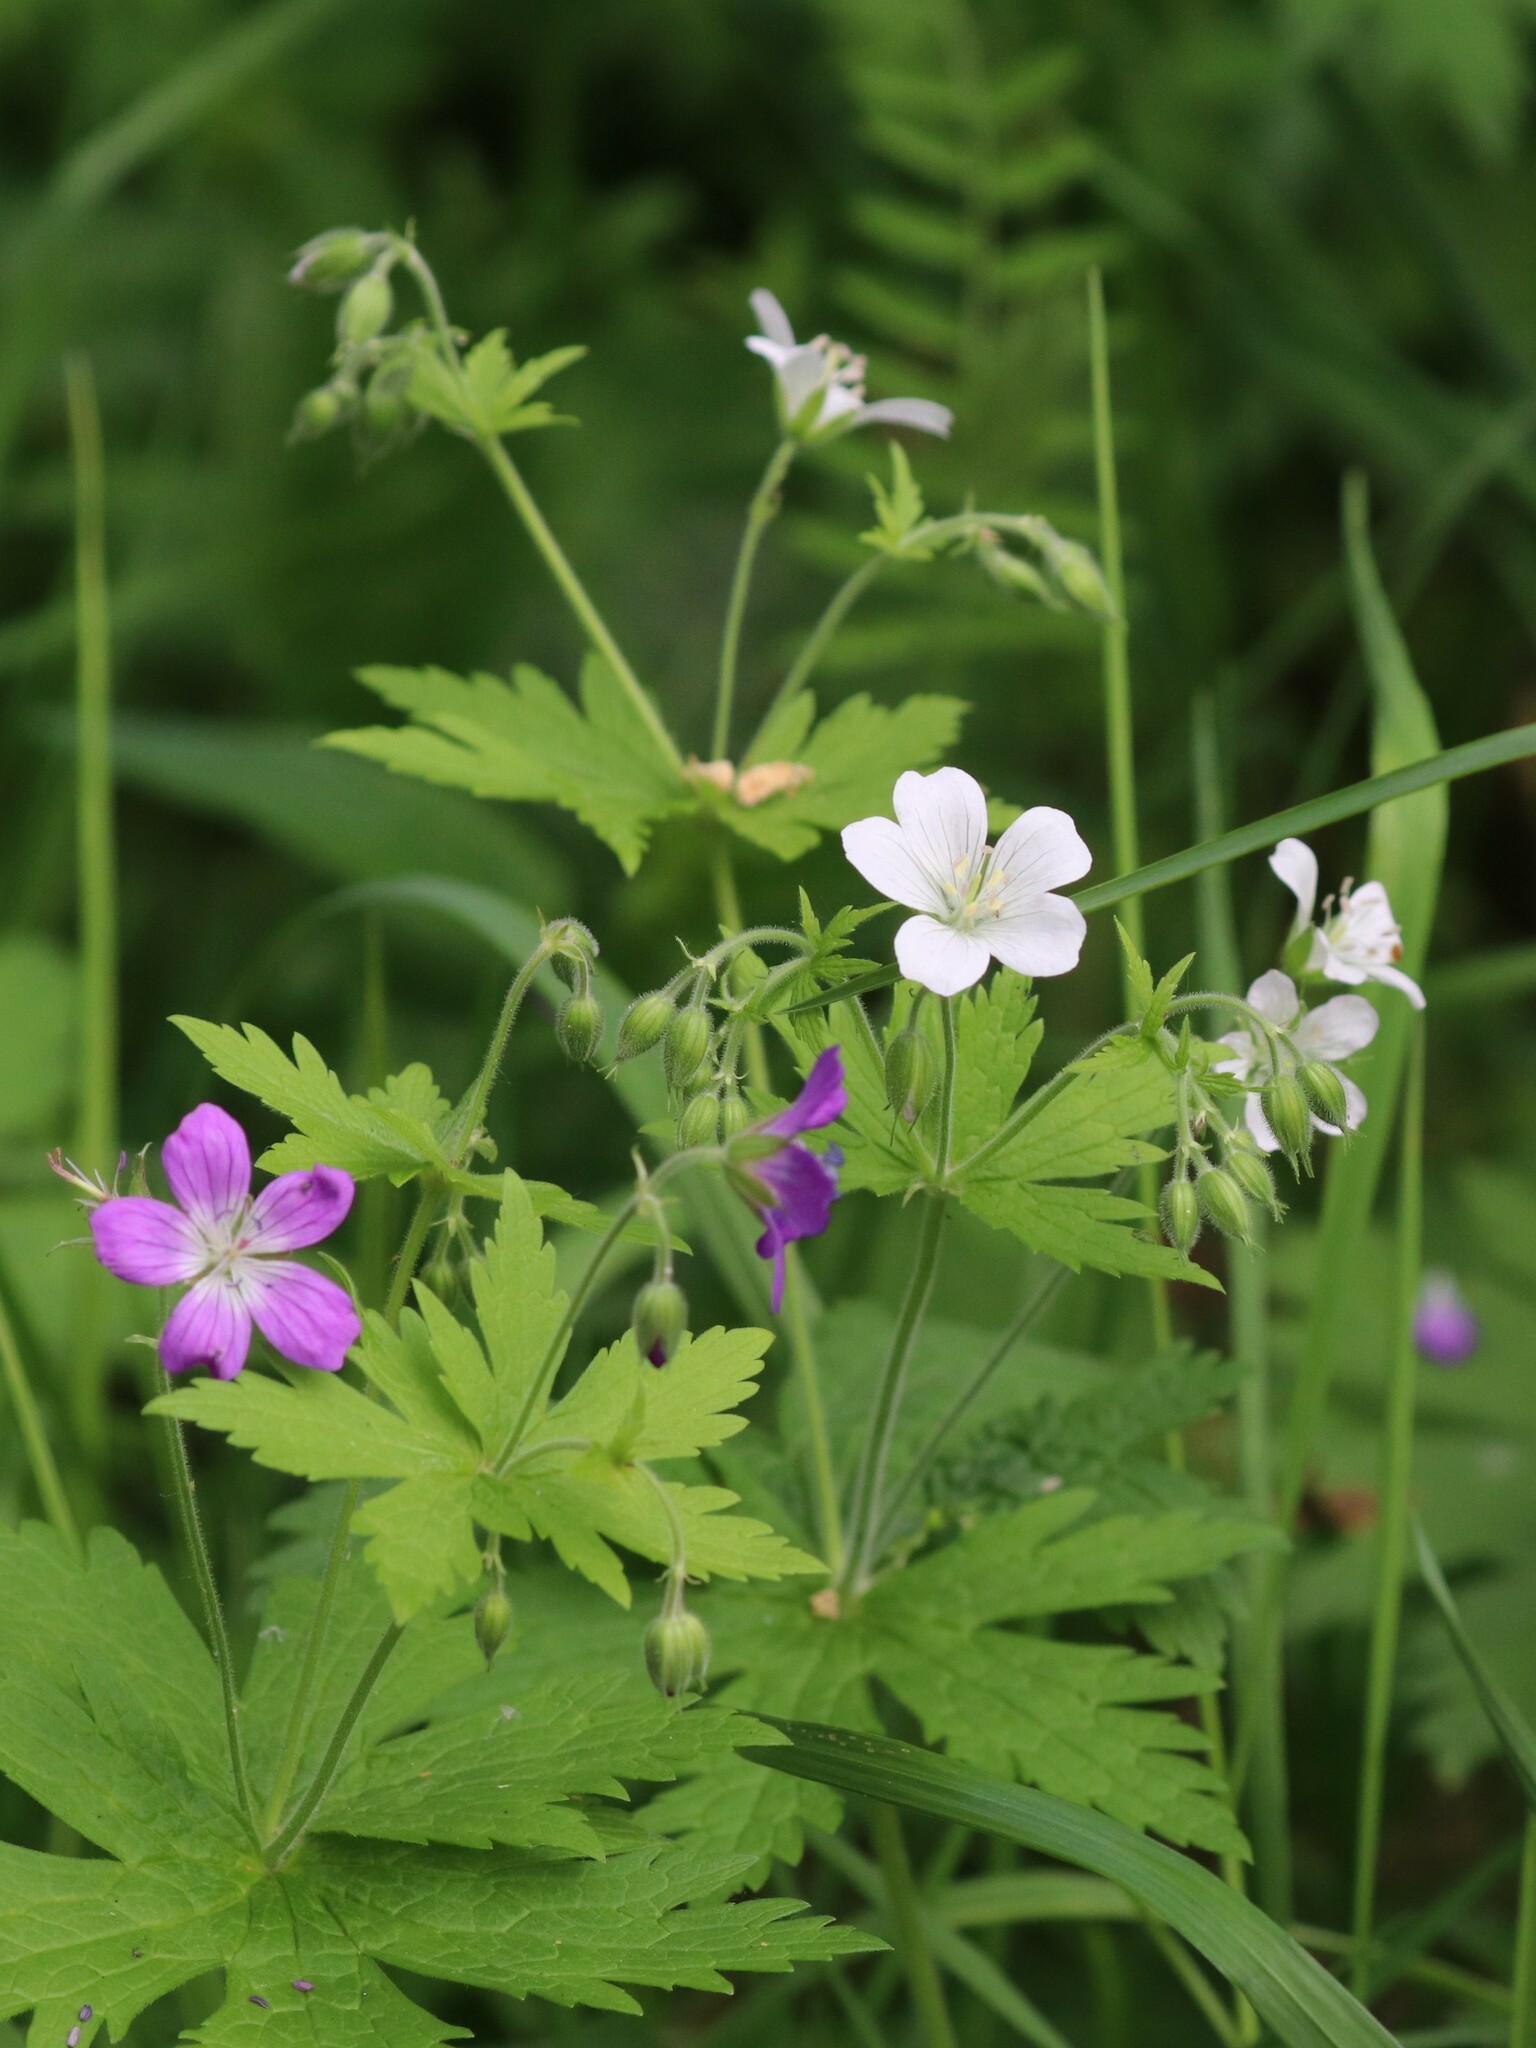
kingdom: Plantae
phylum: Tracheophyta
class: Magnoliopsida
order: Geraniales
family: Geraniaceae
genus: Geranium
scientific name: Geranium sylvaticum
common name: Wood crane's-bill
